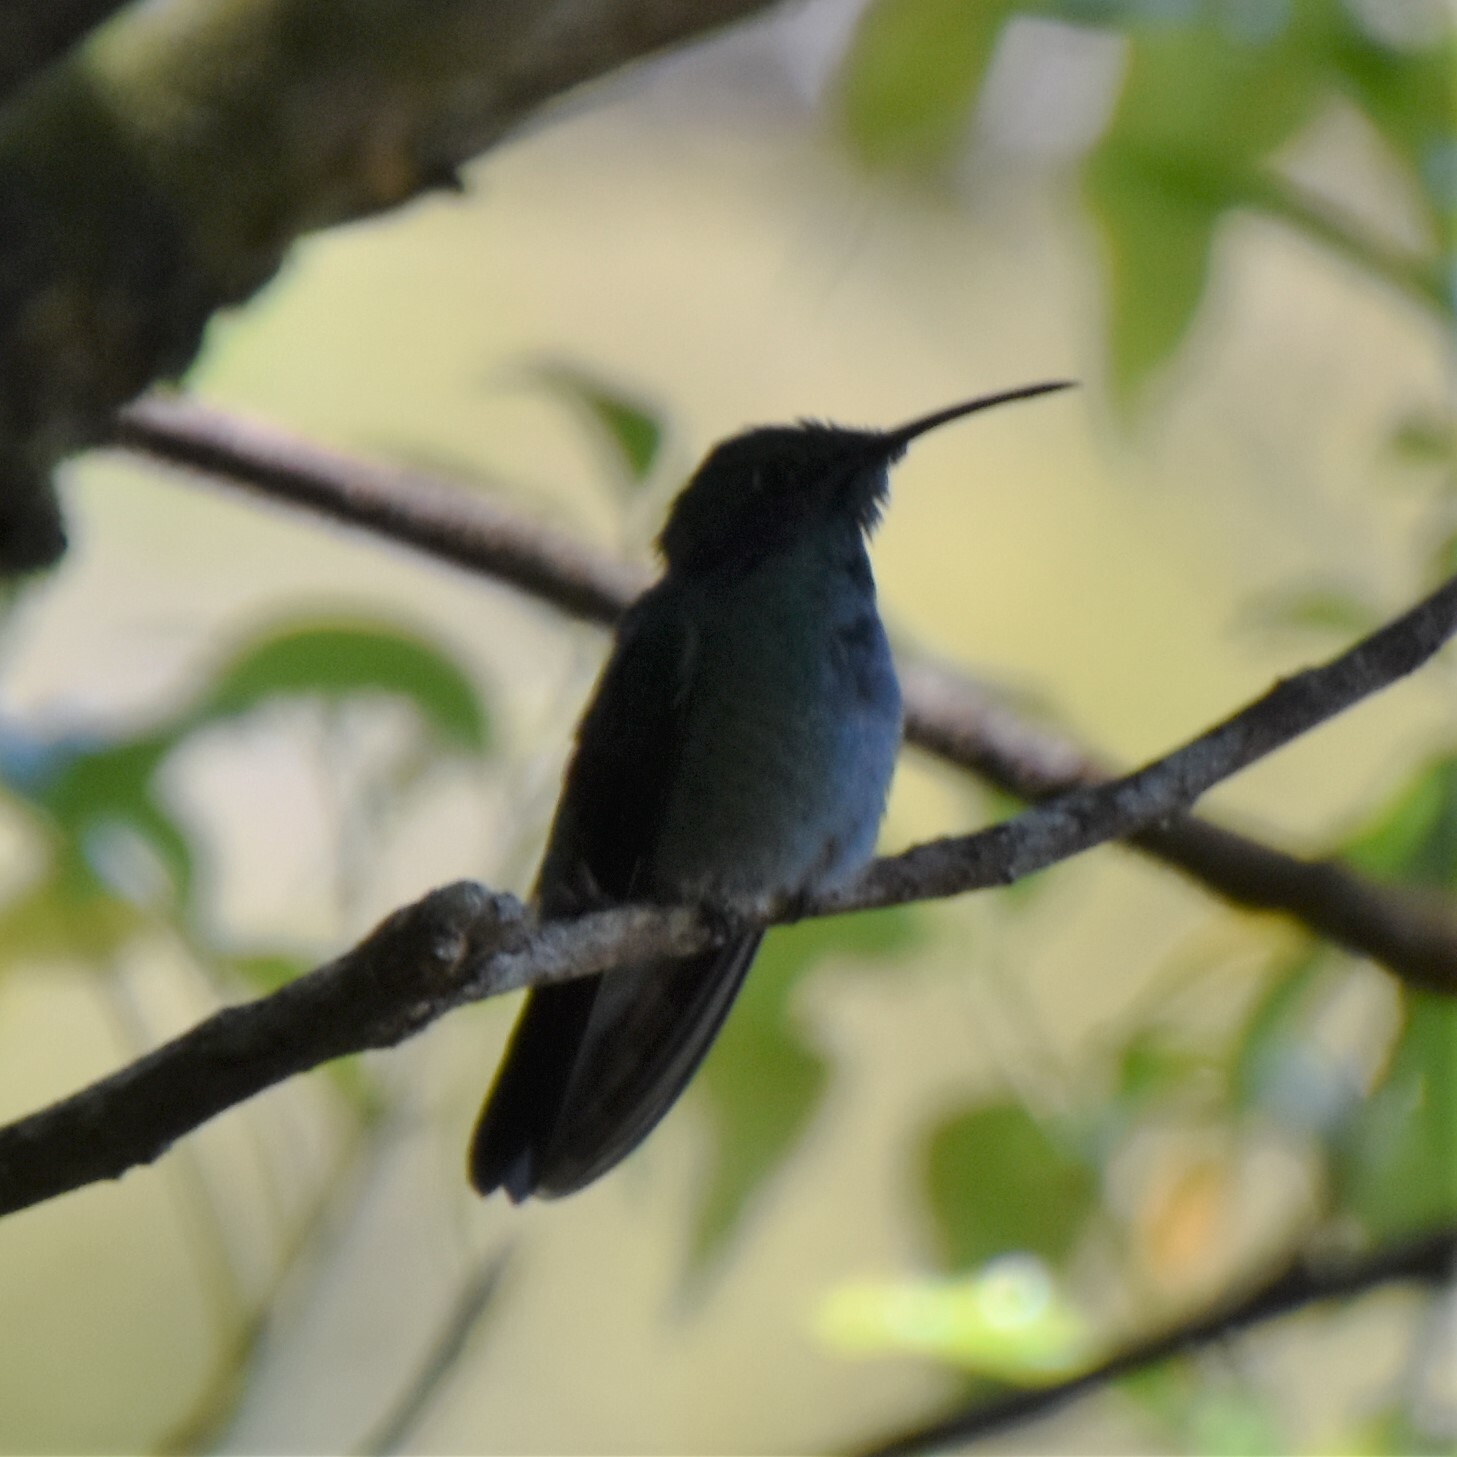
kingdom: Animalia
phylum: Chordata
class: Aves
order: Apodiformes
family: Trochilidae
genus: Colibri
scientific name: Colibri cyanotus
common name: Lesser violetear
